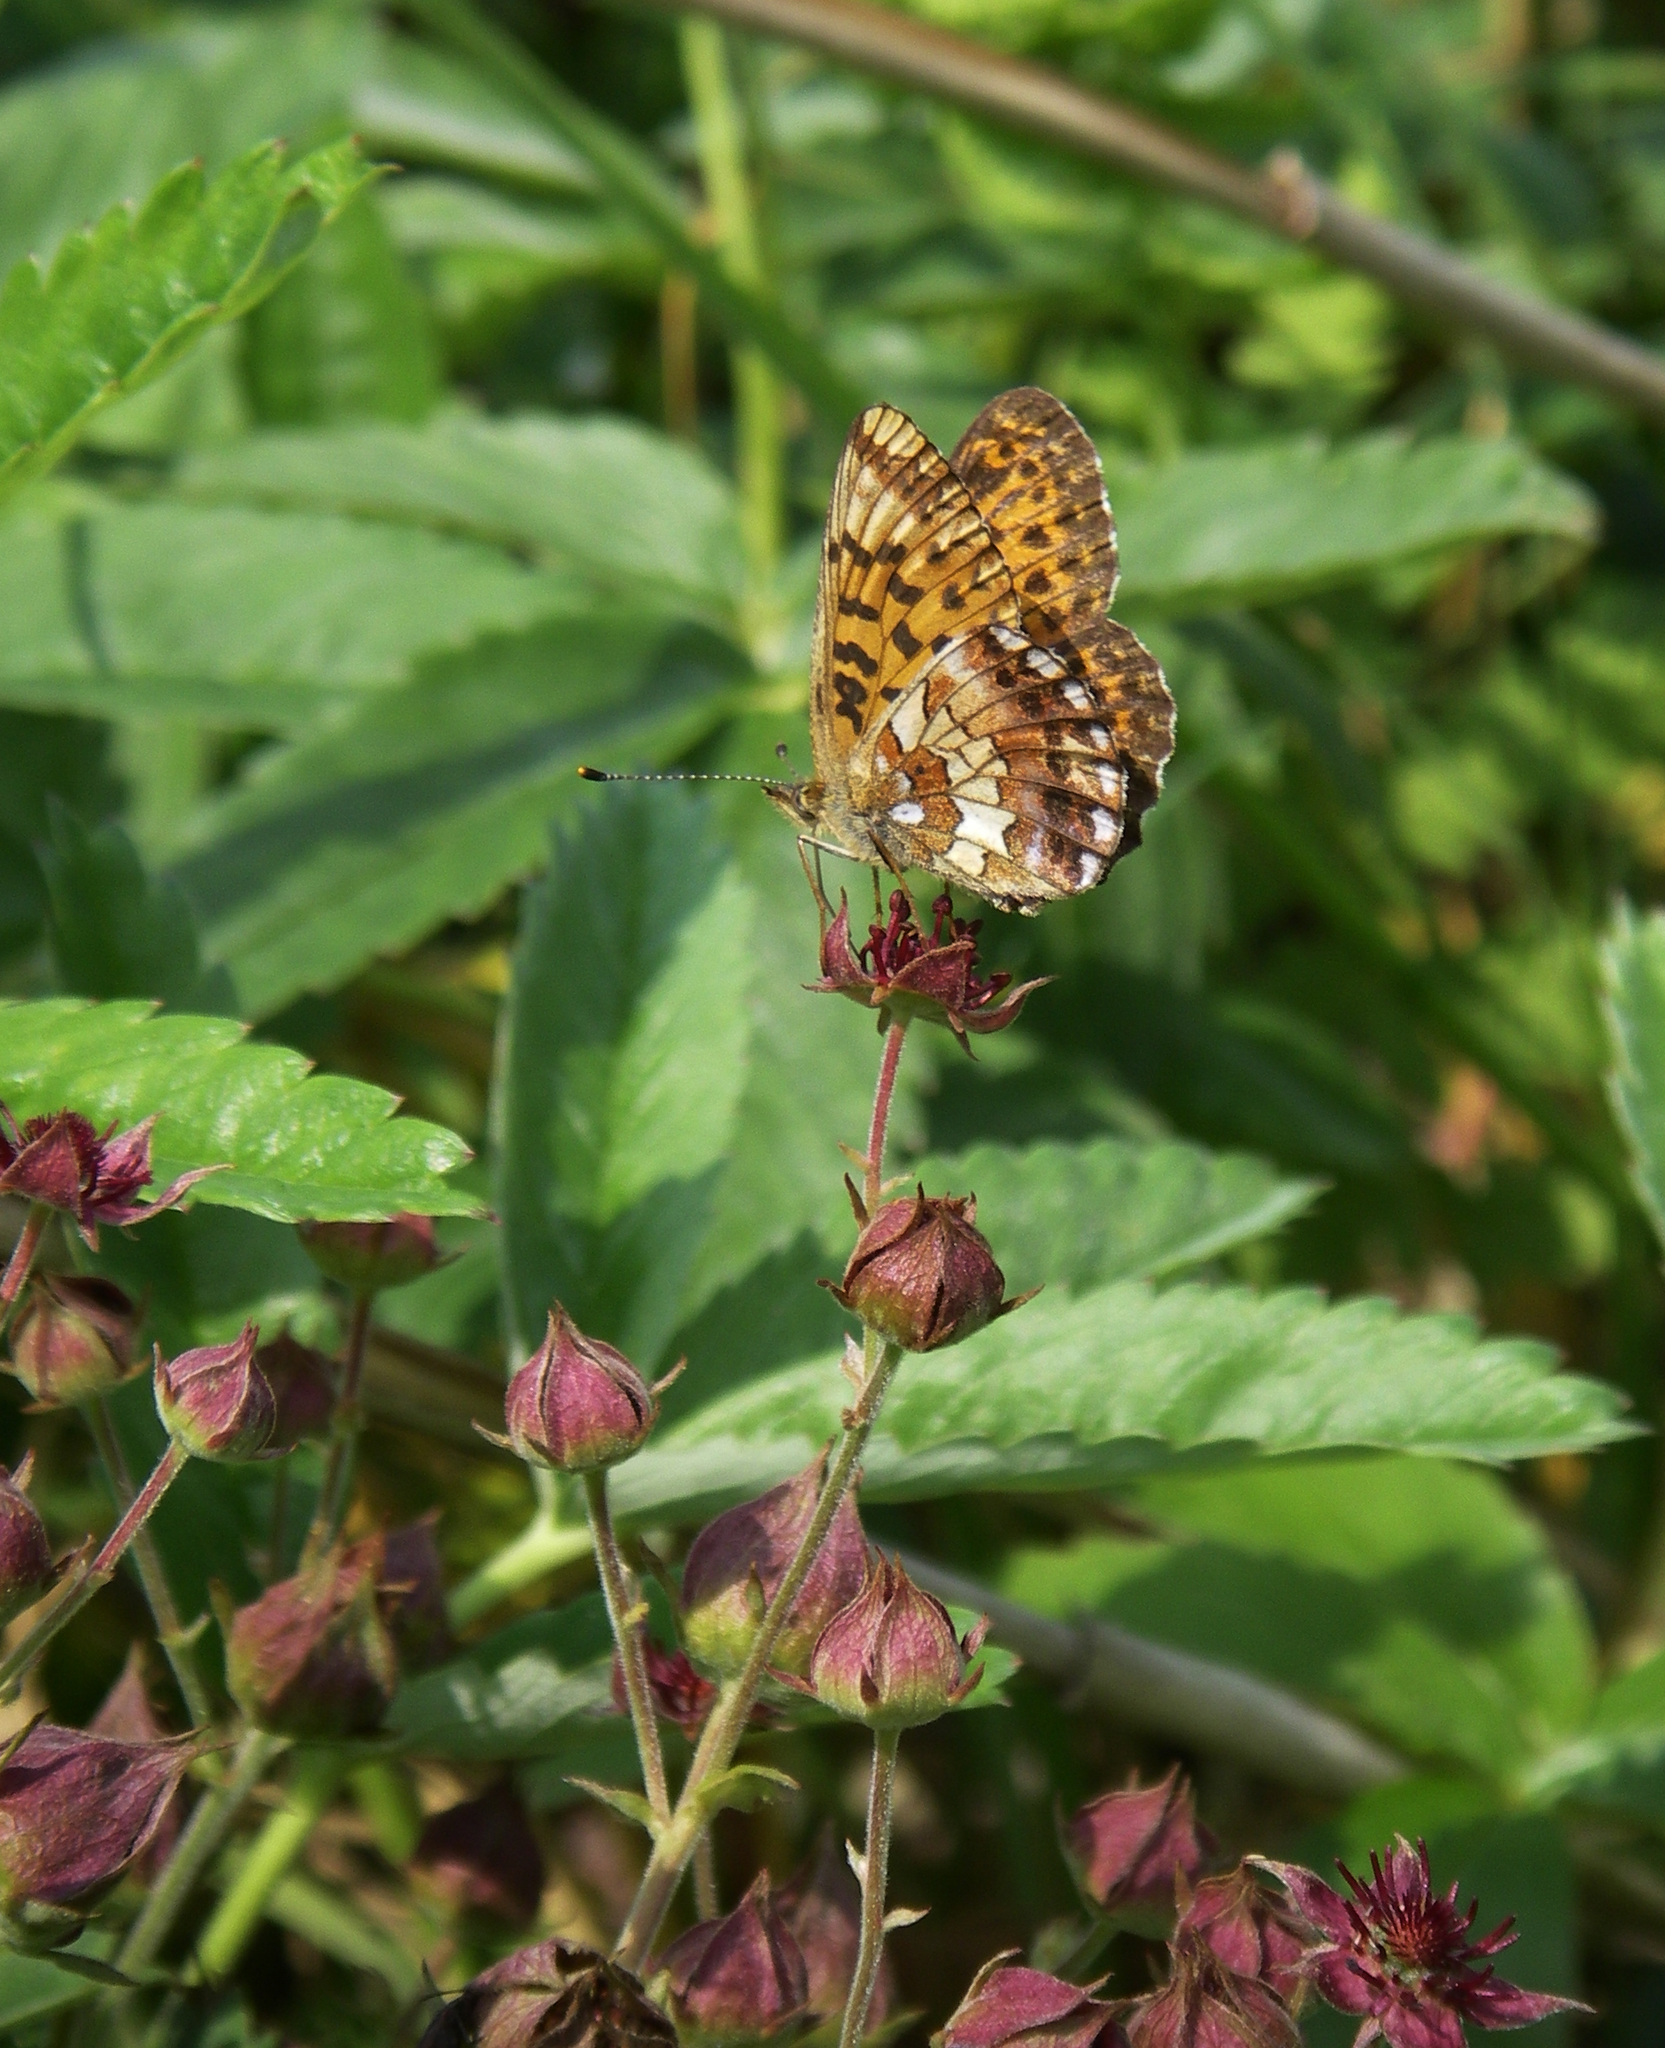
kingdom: Animalia
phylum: Arthropoda
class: Insecta
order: Lepidoptera
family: Nymphalidae
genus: Clossiana
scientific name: Clossiana angarensis
